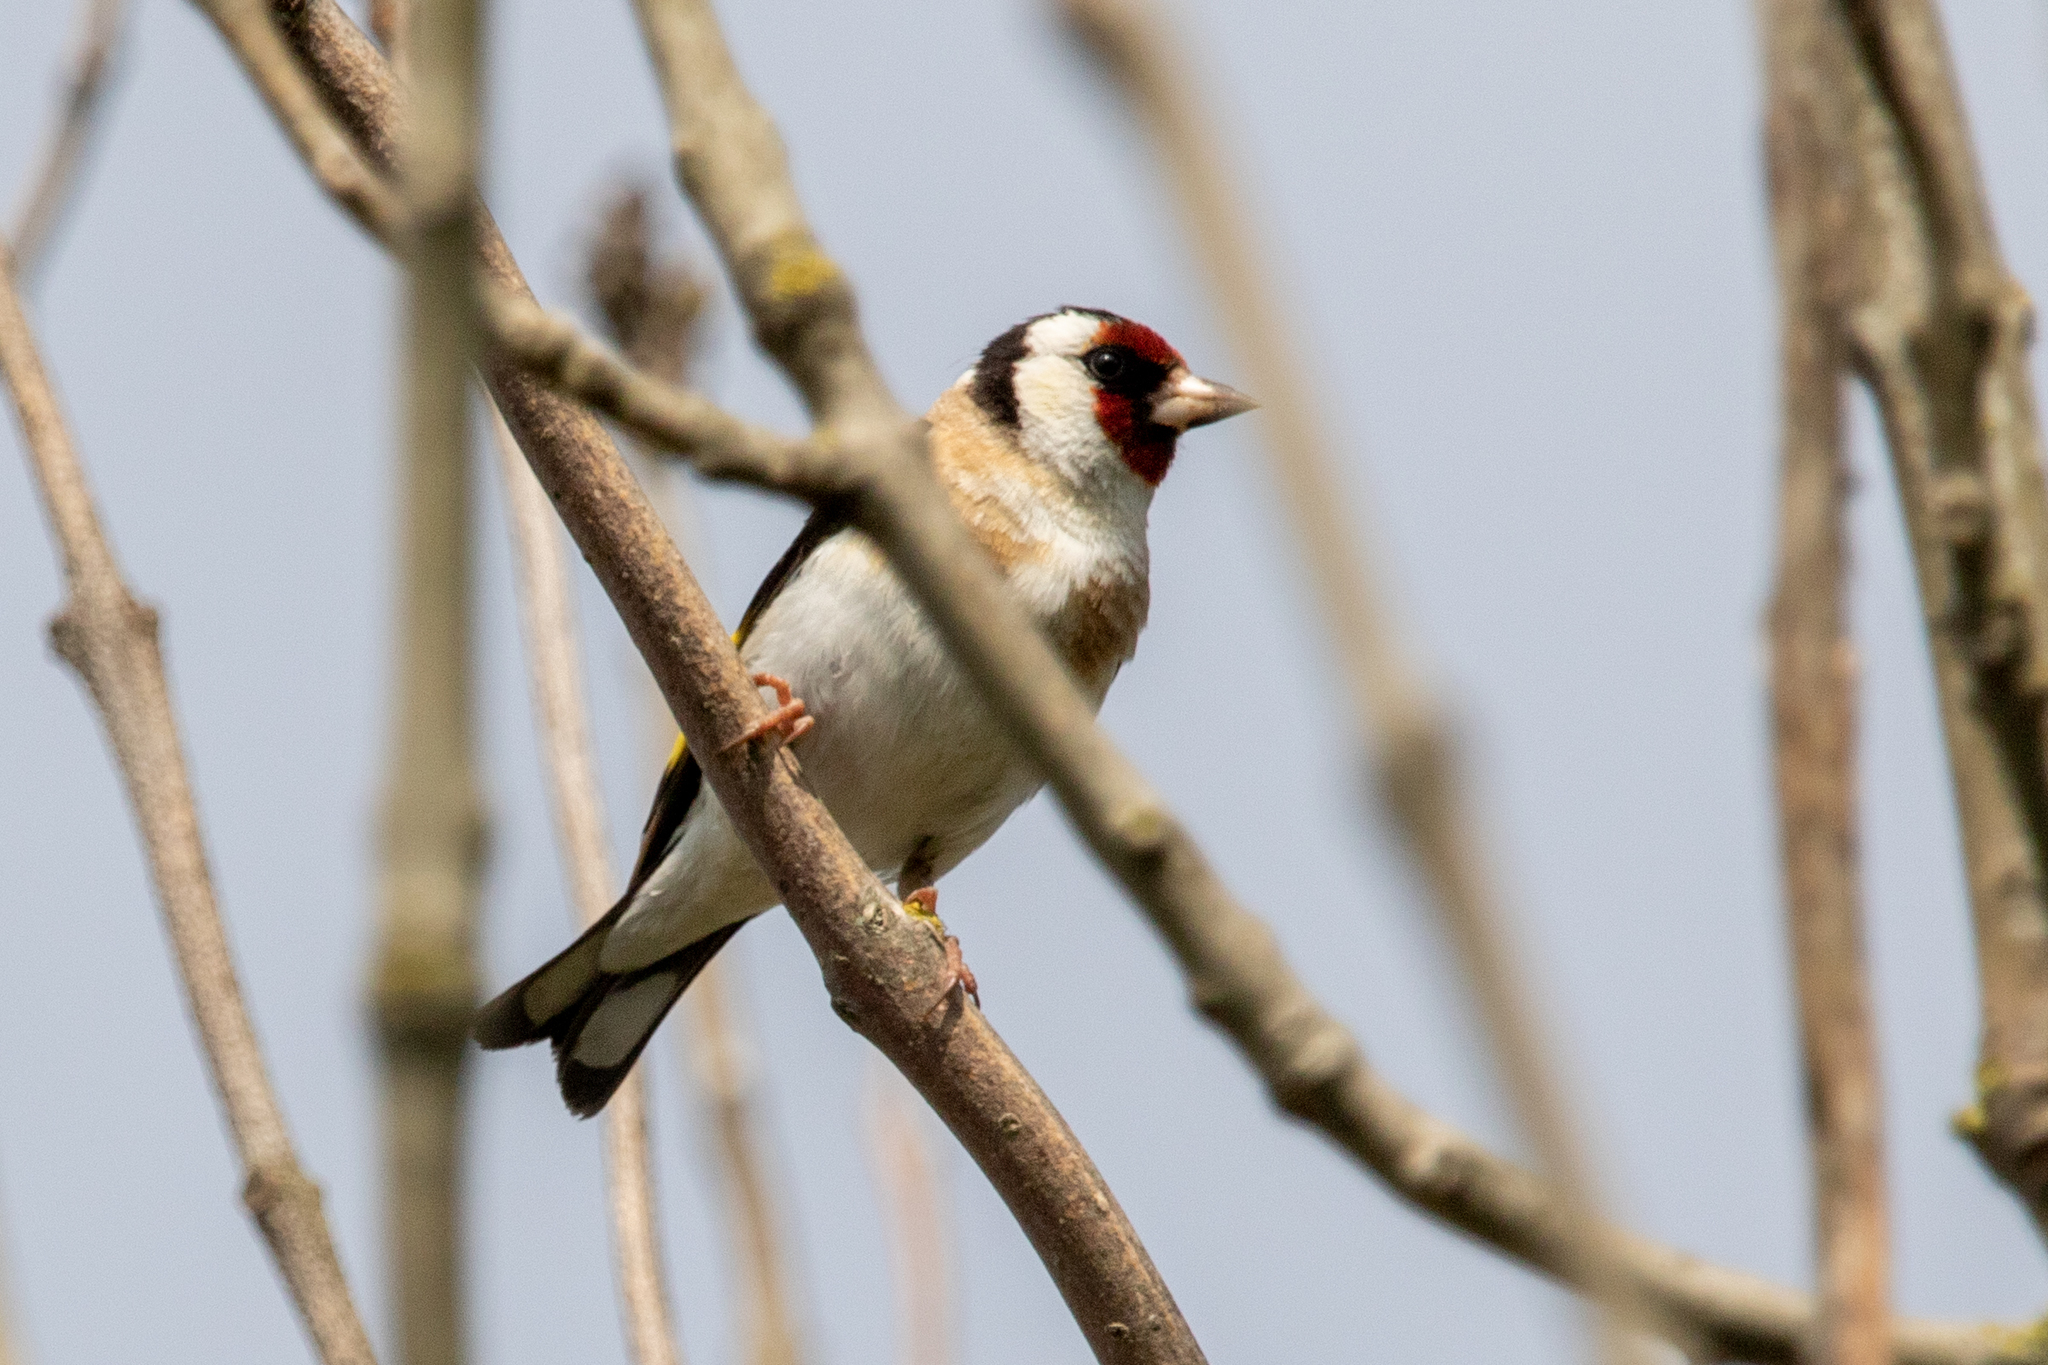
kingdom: Animalia
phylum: Chordata
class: Aves
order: Passeriformes
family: Fringillidae
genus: Carduelis
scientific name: Carduelis carduelis
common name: European goldfinch
